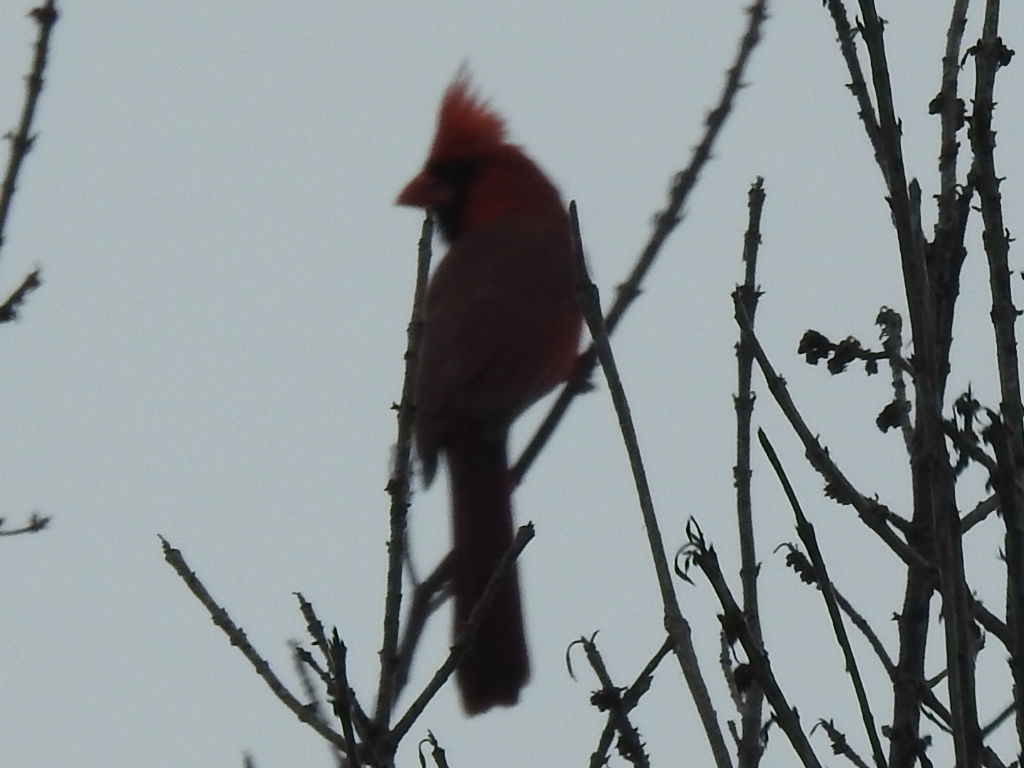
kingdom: Animalia
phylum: Chordata
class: Aves
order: Passeriformes
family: Cardinalidae
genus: Cardinalis
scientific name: Cardinalis cardinalis
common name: Northern cardinal
